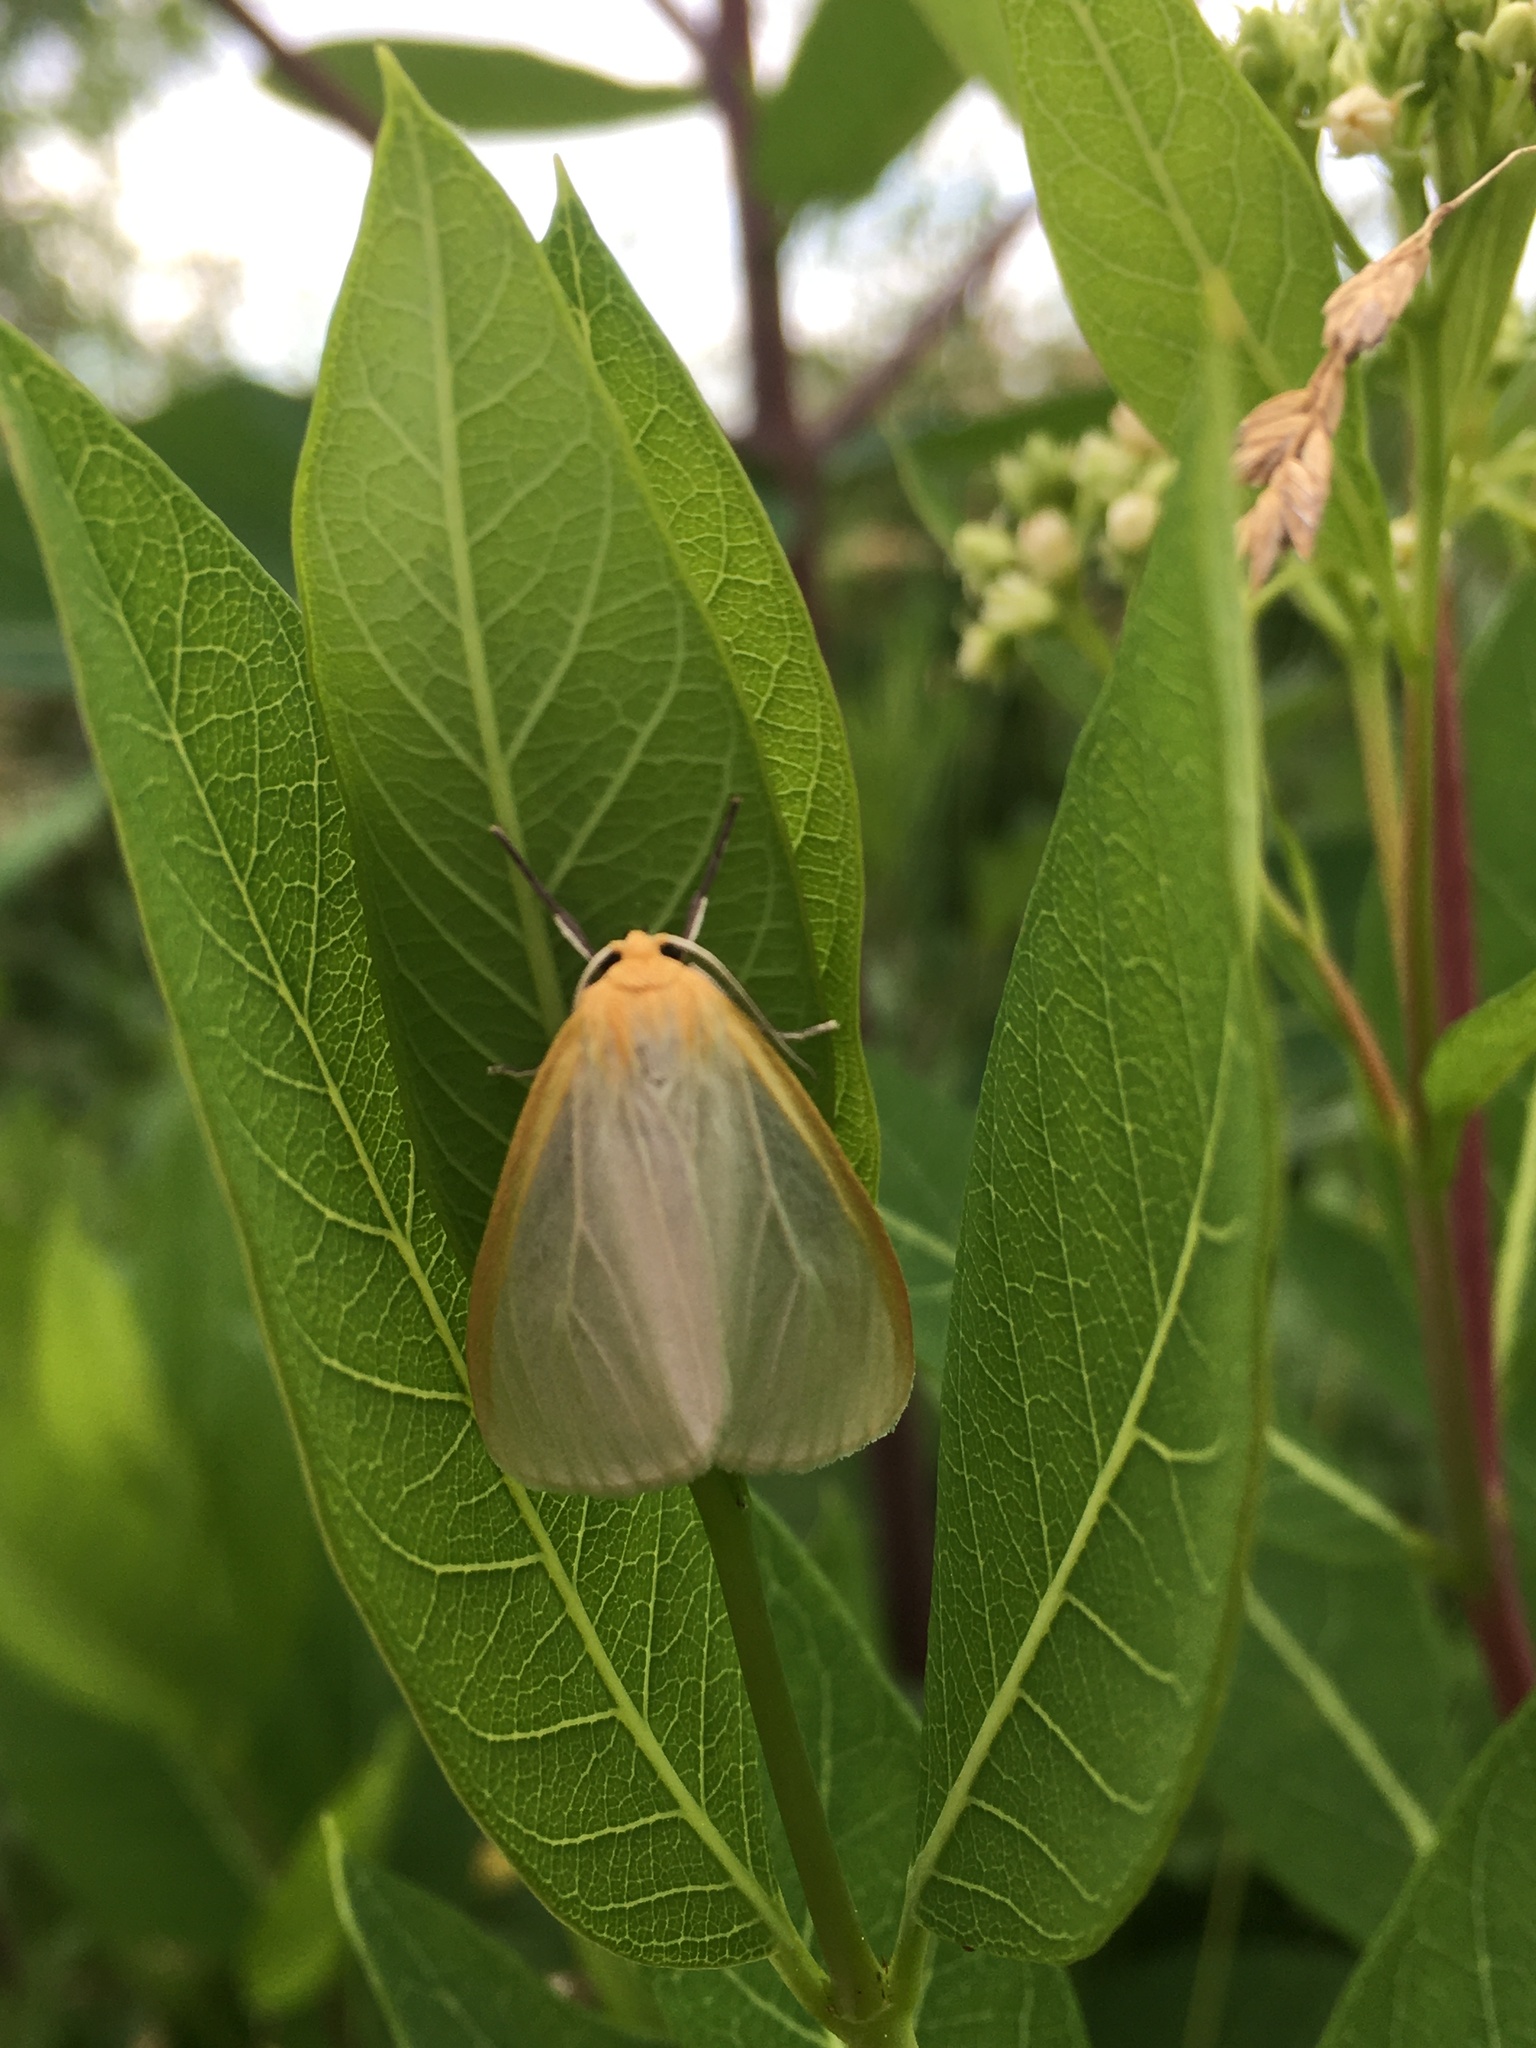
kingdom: Animalia
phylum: Arthropoda
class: Insecta
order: Lepidoptera
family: Erebidae
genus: Cycnia
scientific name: Cycnia tenera
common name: Delicate cycnia moth
